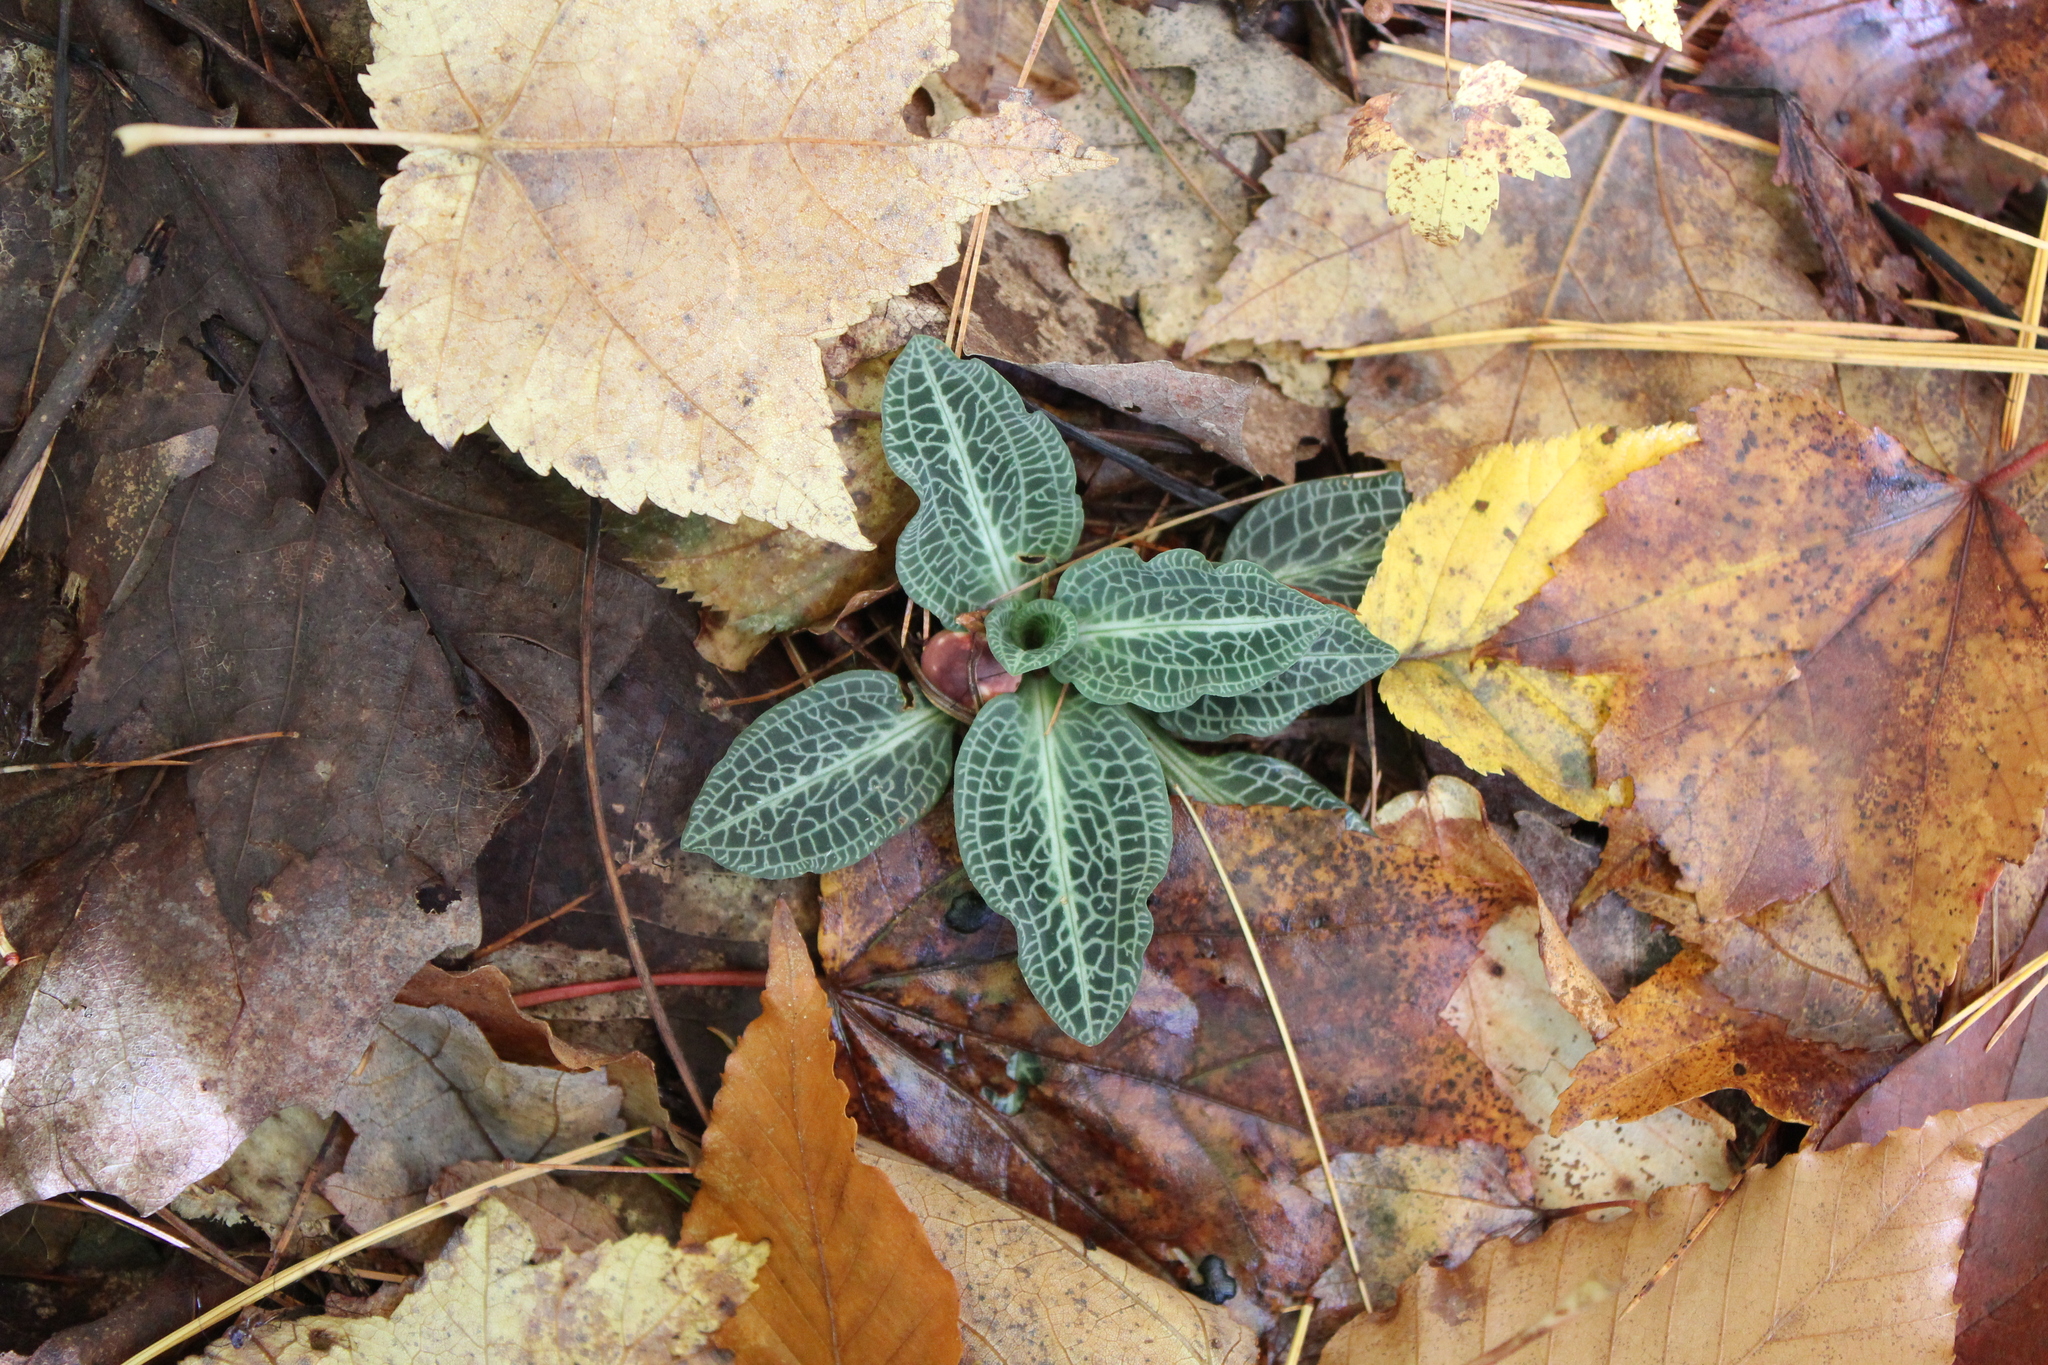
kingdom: Plantae
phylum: Tracheophyta
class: Liliopsida
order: Asparagales
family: Orchidaceae
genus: Goodyera
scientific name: Goodyera pubescens
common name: Downy rattlesnake-plantain
